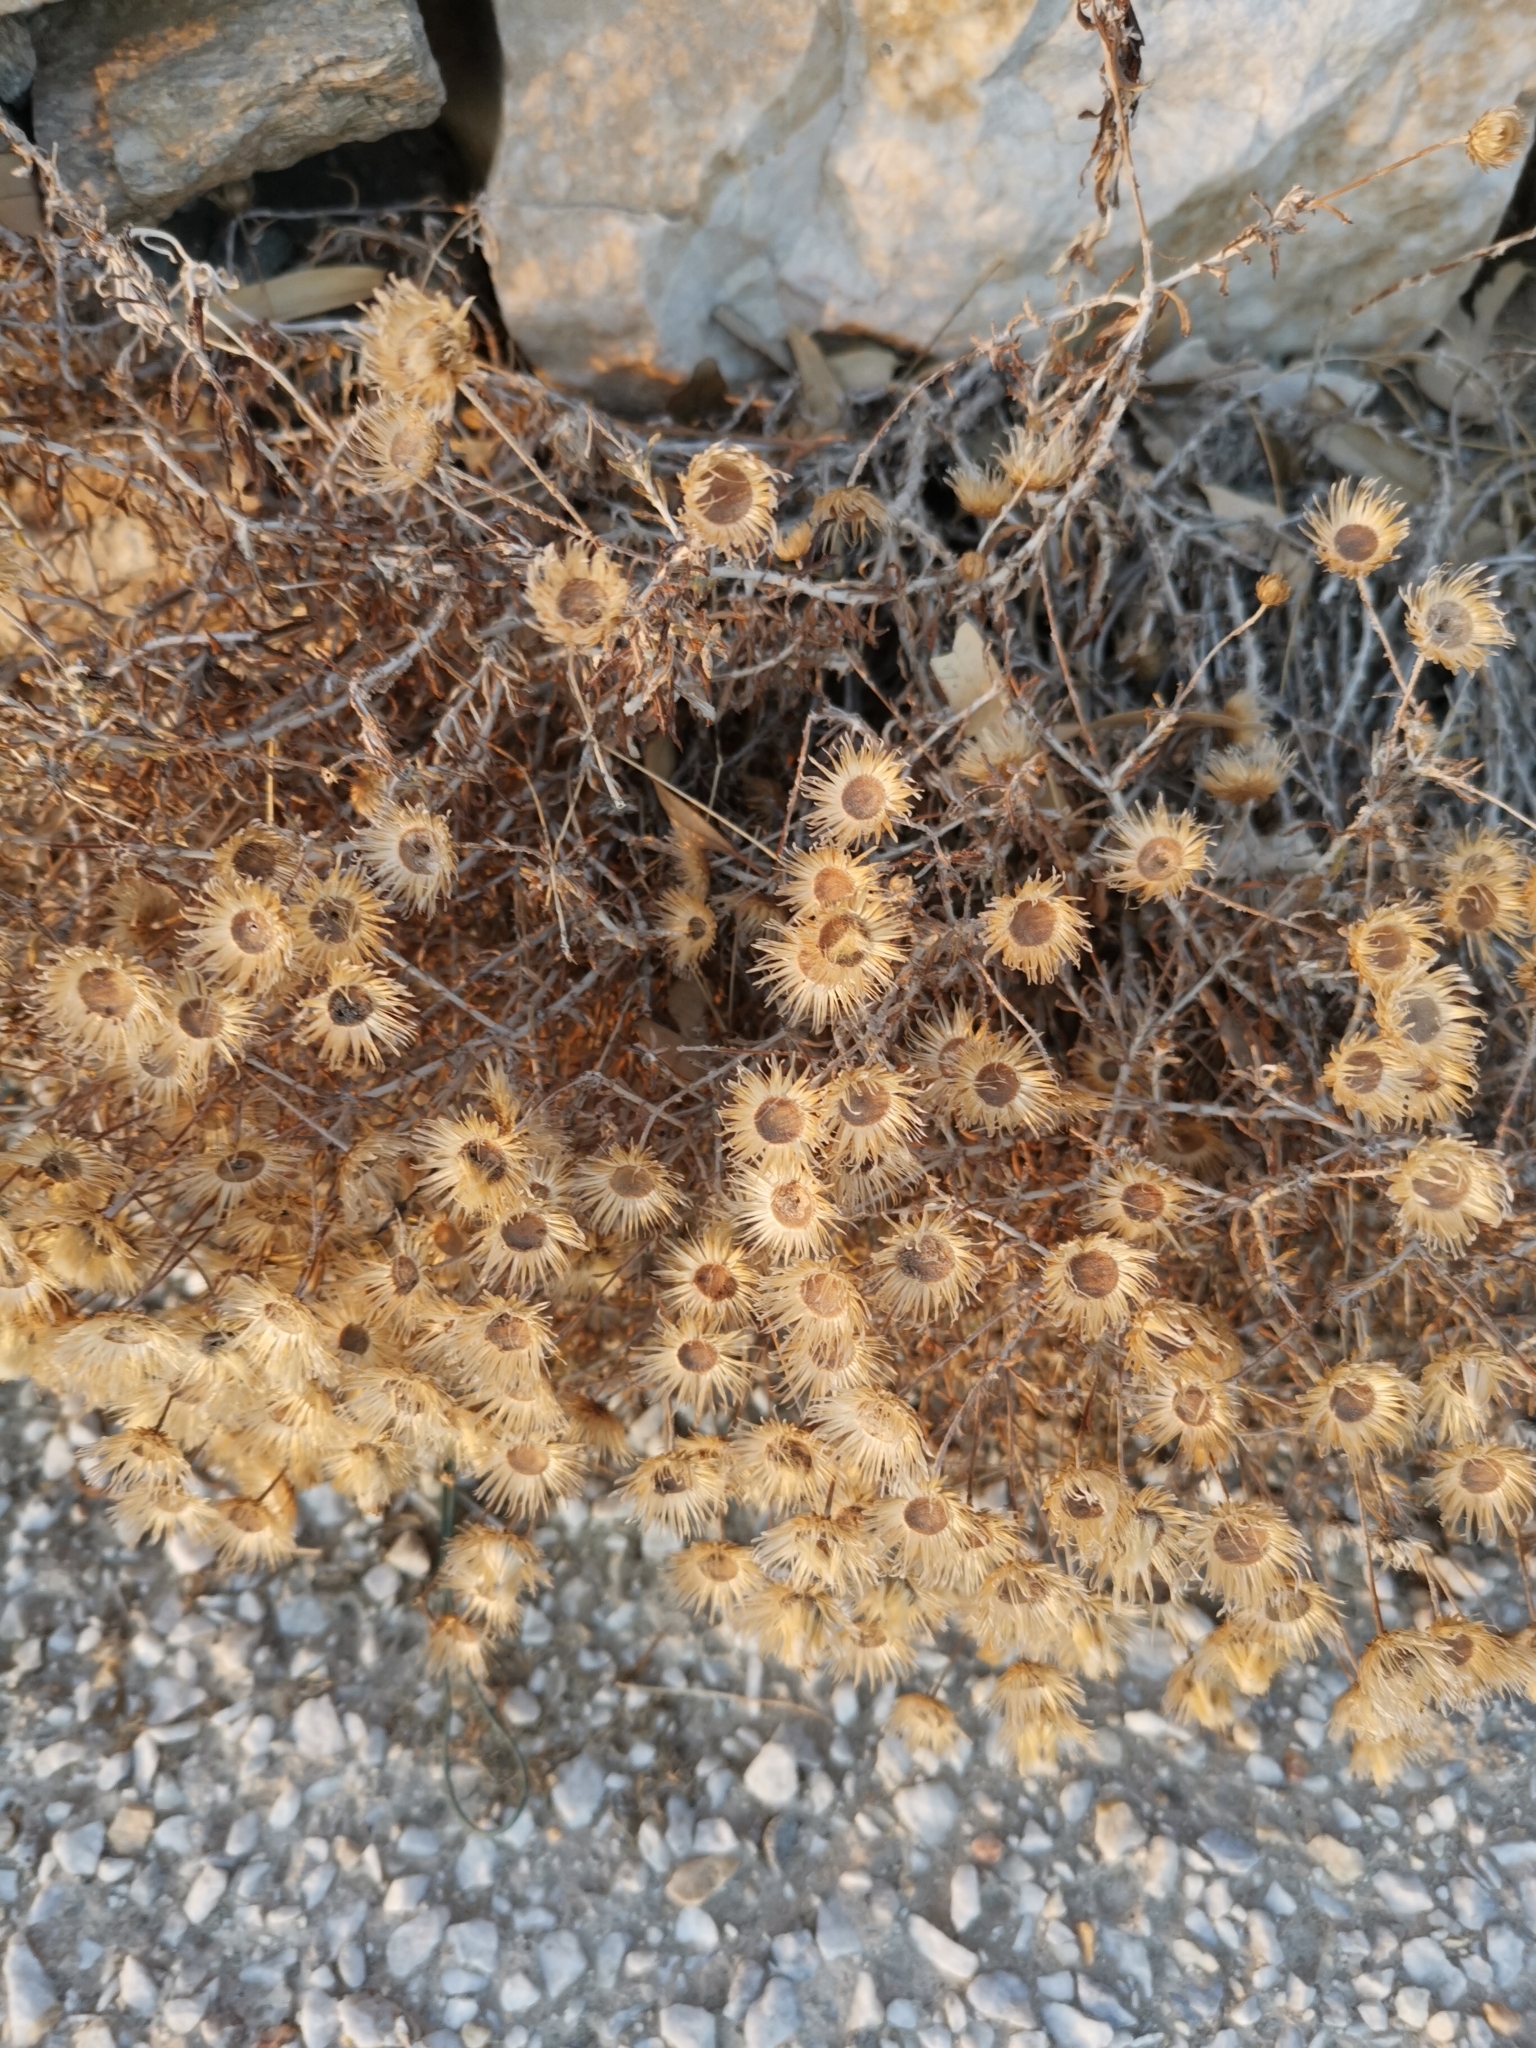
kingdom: Plantae
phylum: Tracheophyta
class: Magnoliopsida
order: Asterales
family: Asteraceae
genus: Phagnalon
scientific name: Phagnalon
